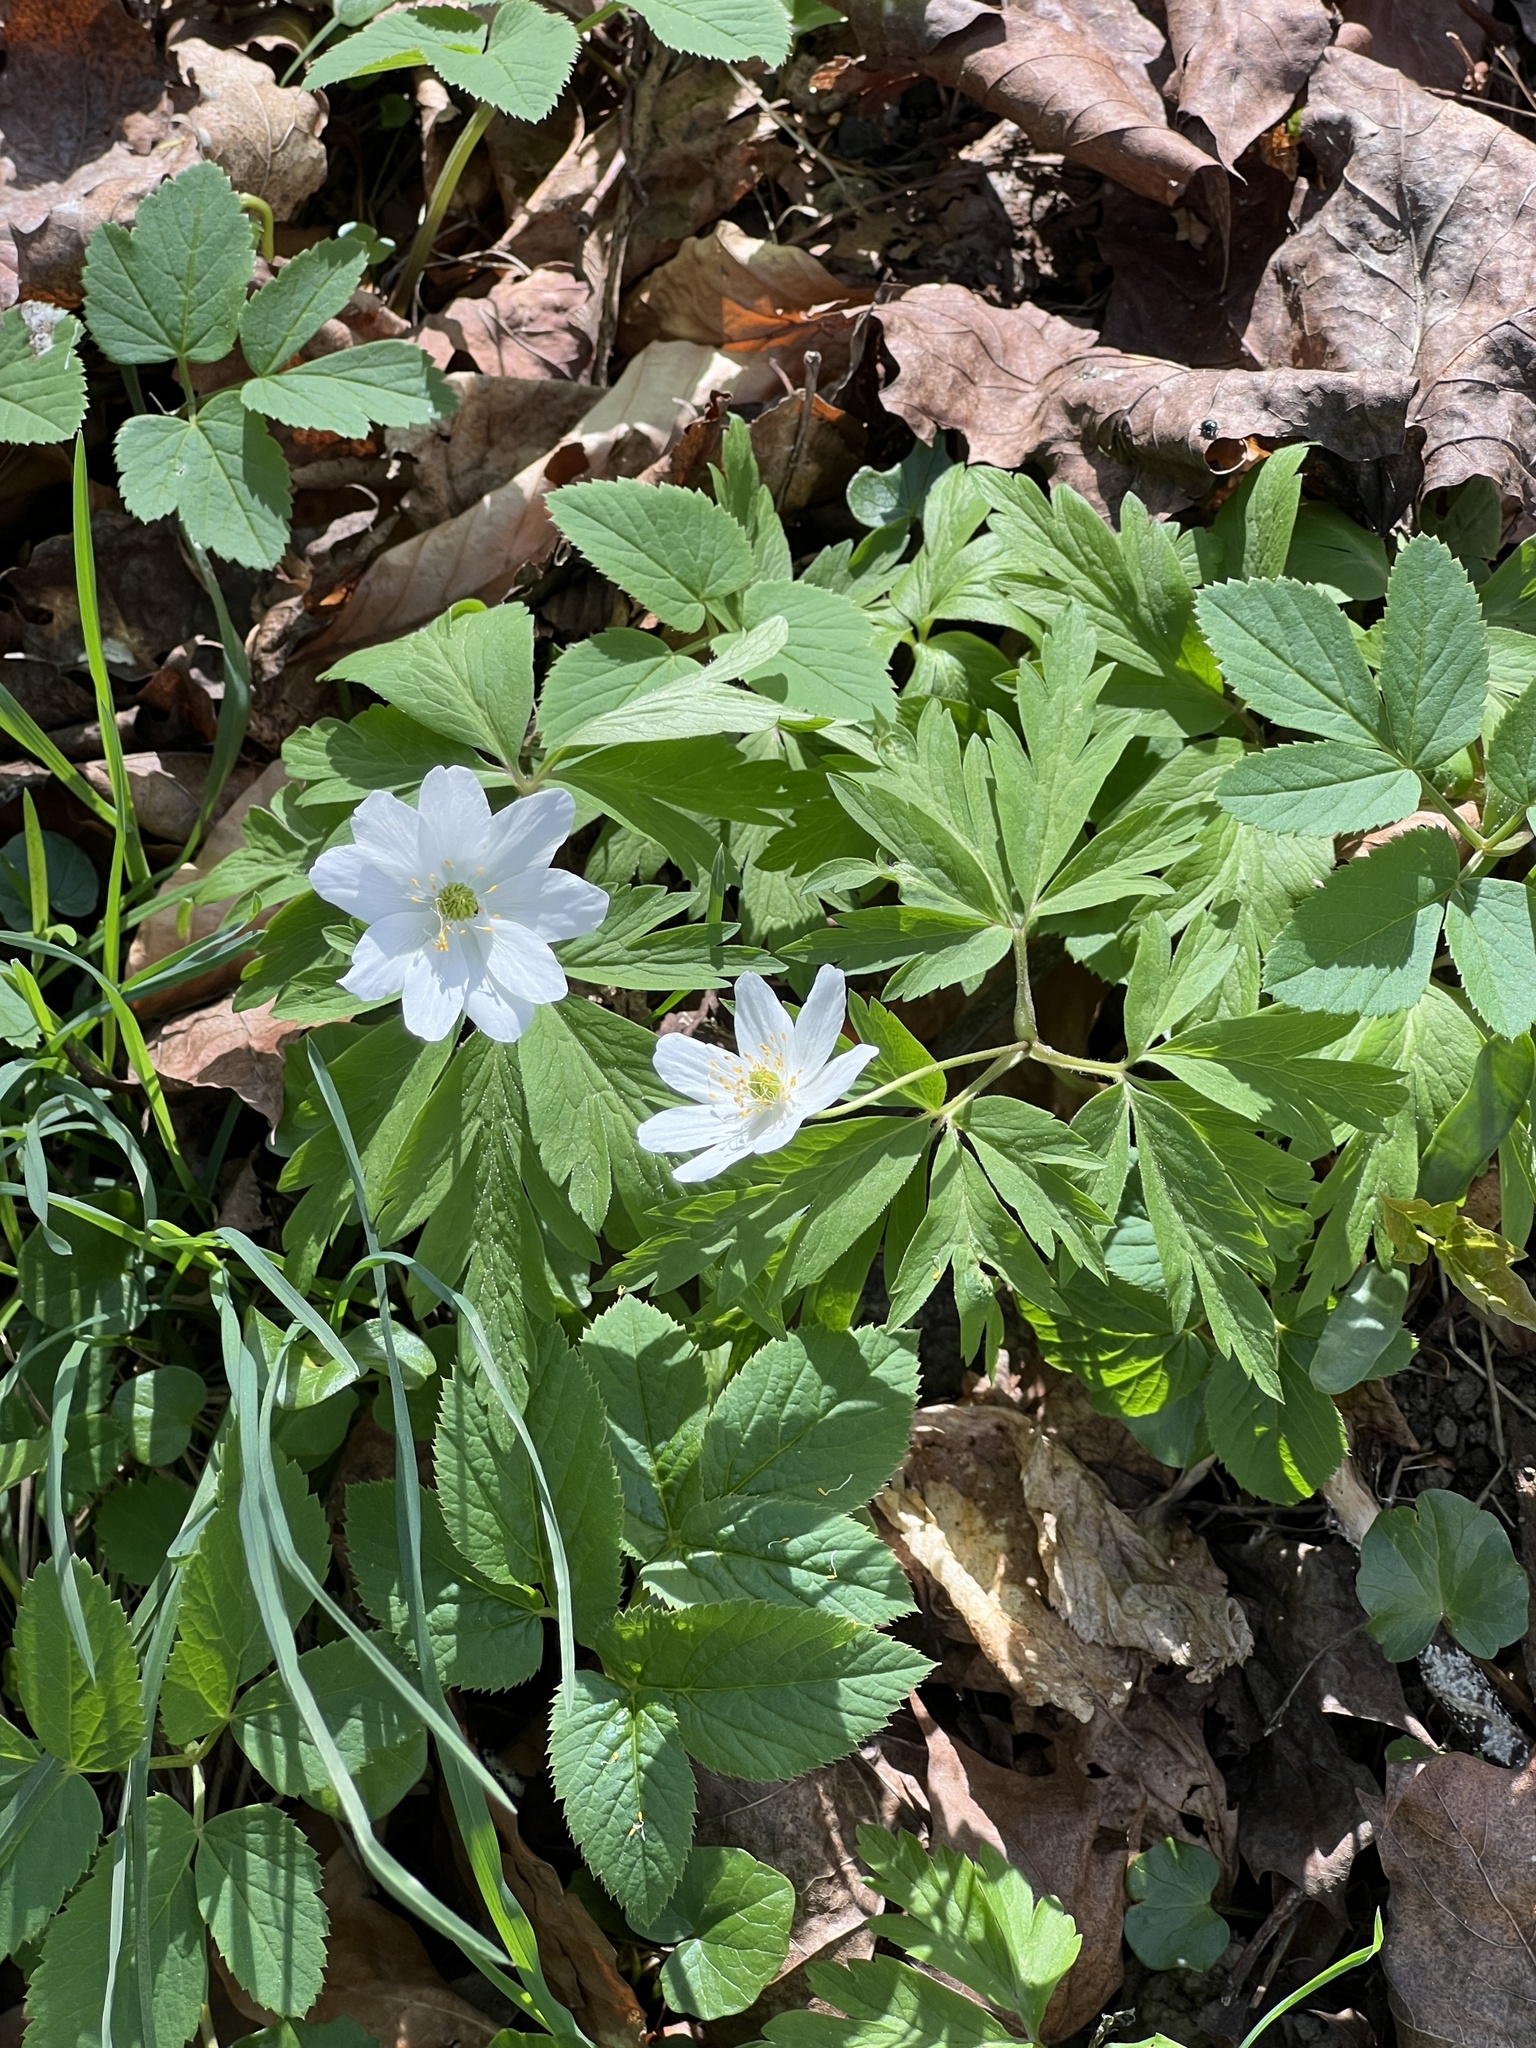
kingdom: Plantae
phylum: Tracheophyta
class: Magnoliopsida
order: Ranunculales
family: Ranunculaceae
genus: Anemone
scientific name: Anemone nemorosa
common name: Wood anemone
